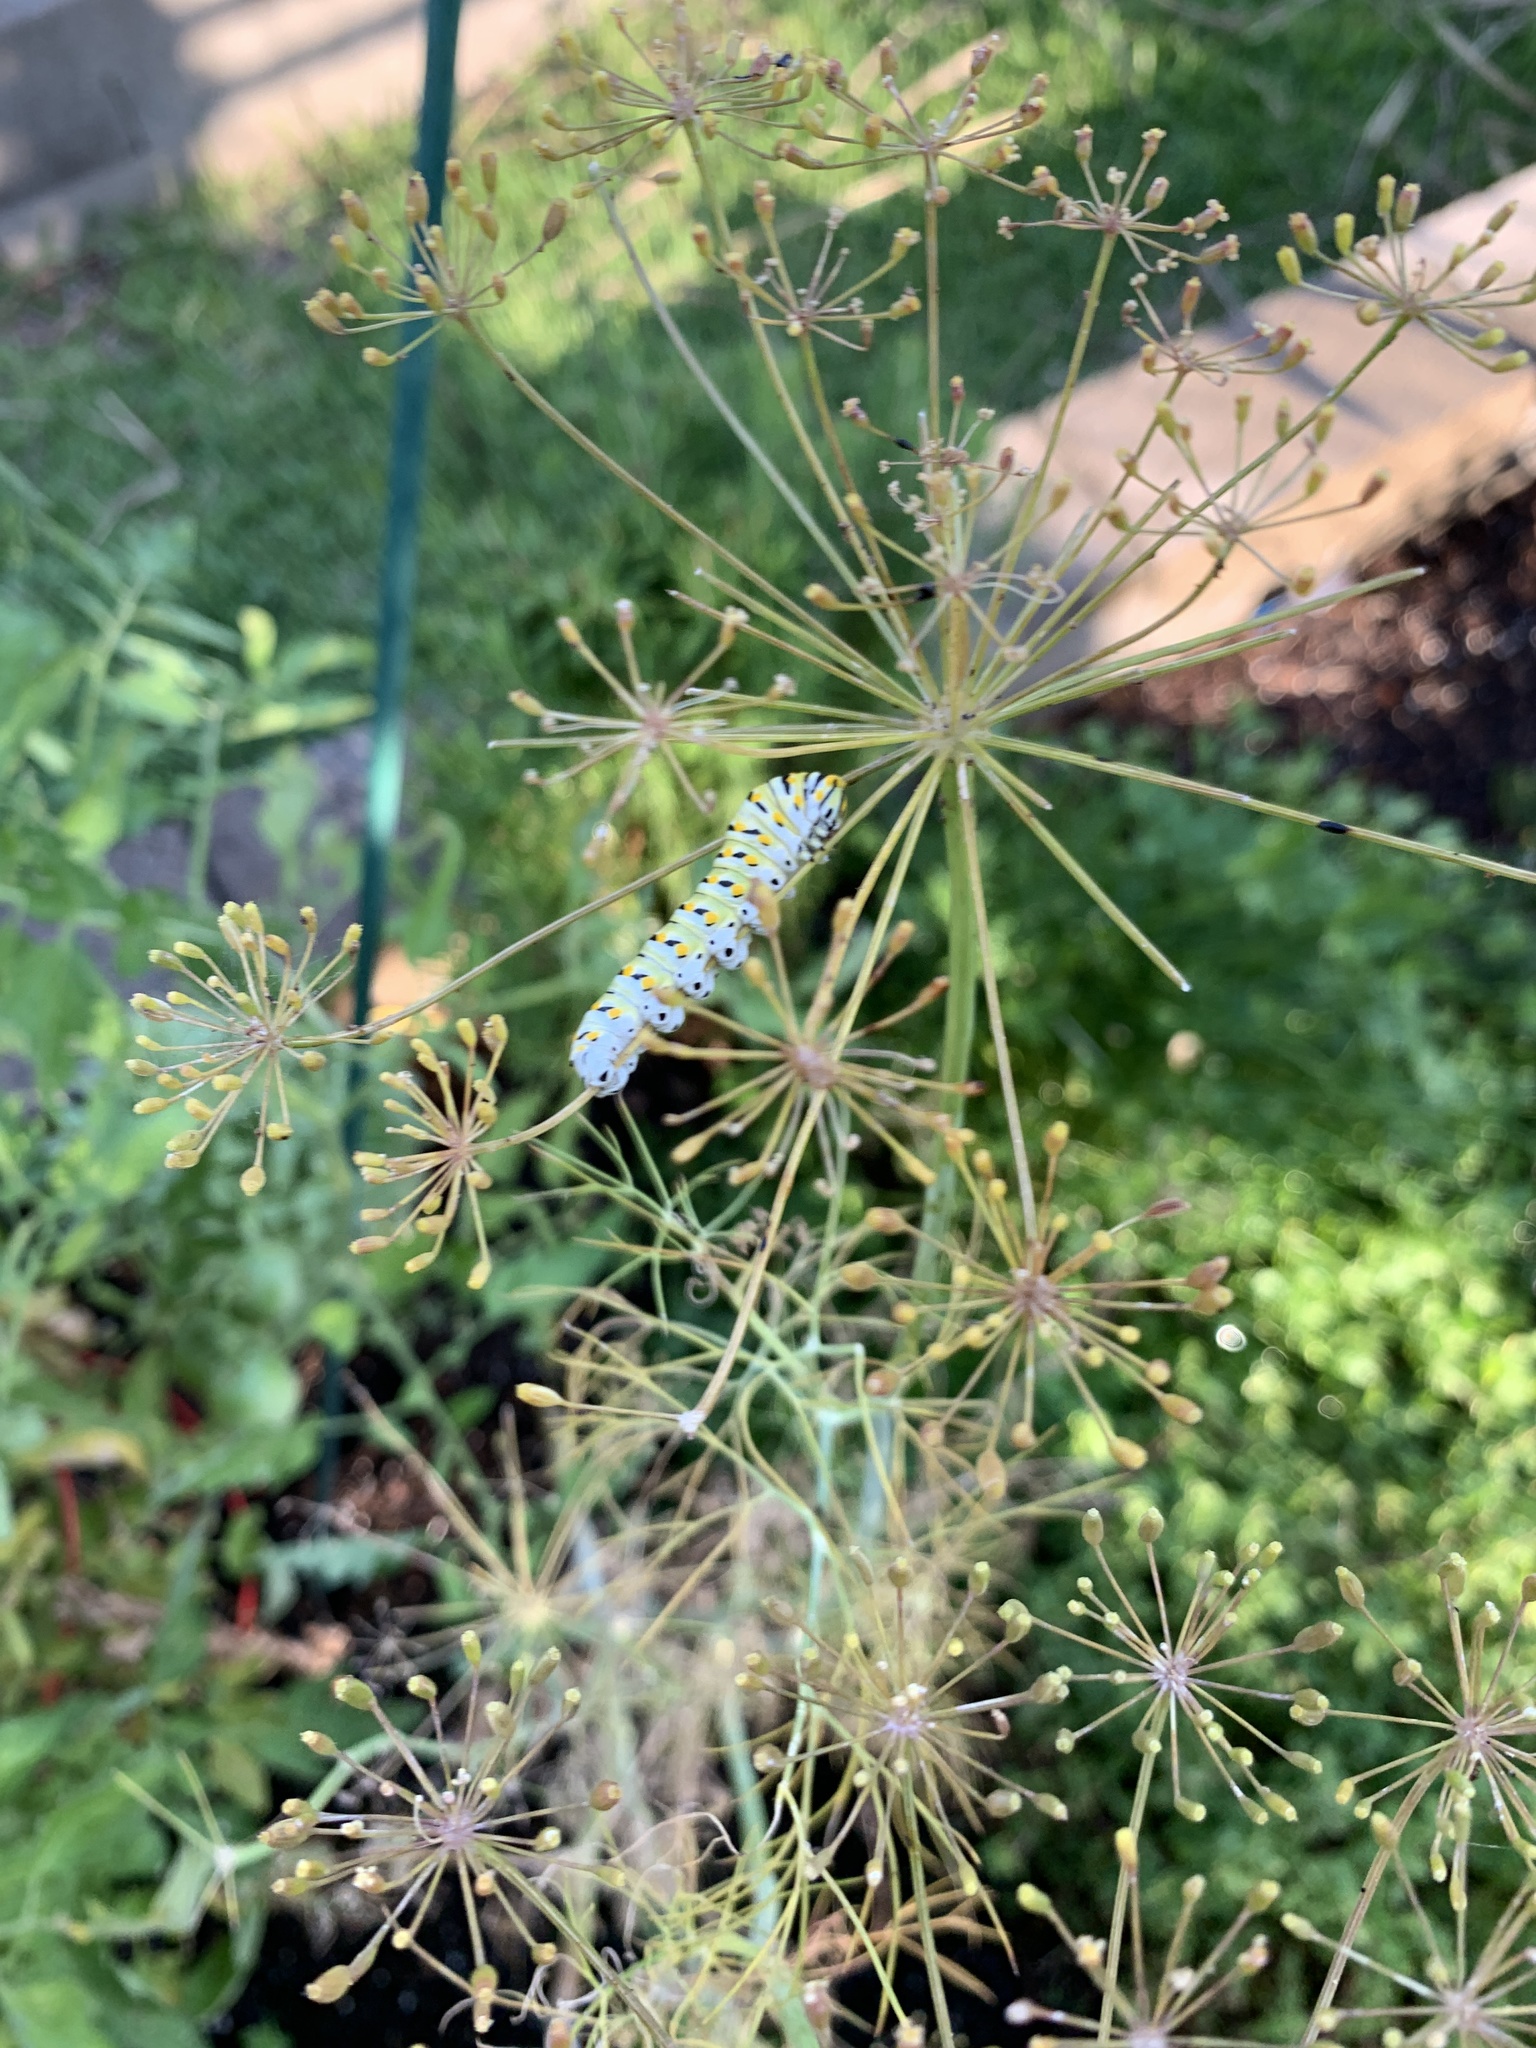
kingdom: Animalia
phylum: Arthropoda
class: Insecta
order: Lepidoptera
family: Papilionidae
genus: Papilio
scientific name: Papilio polyxenes
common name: Black swallowtail
